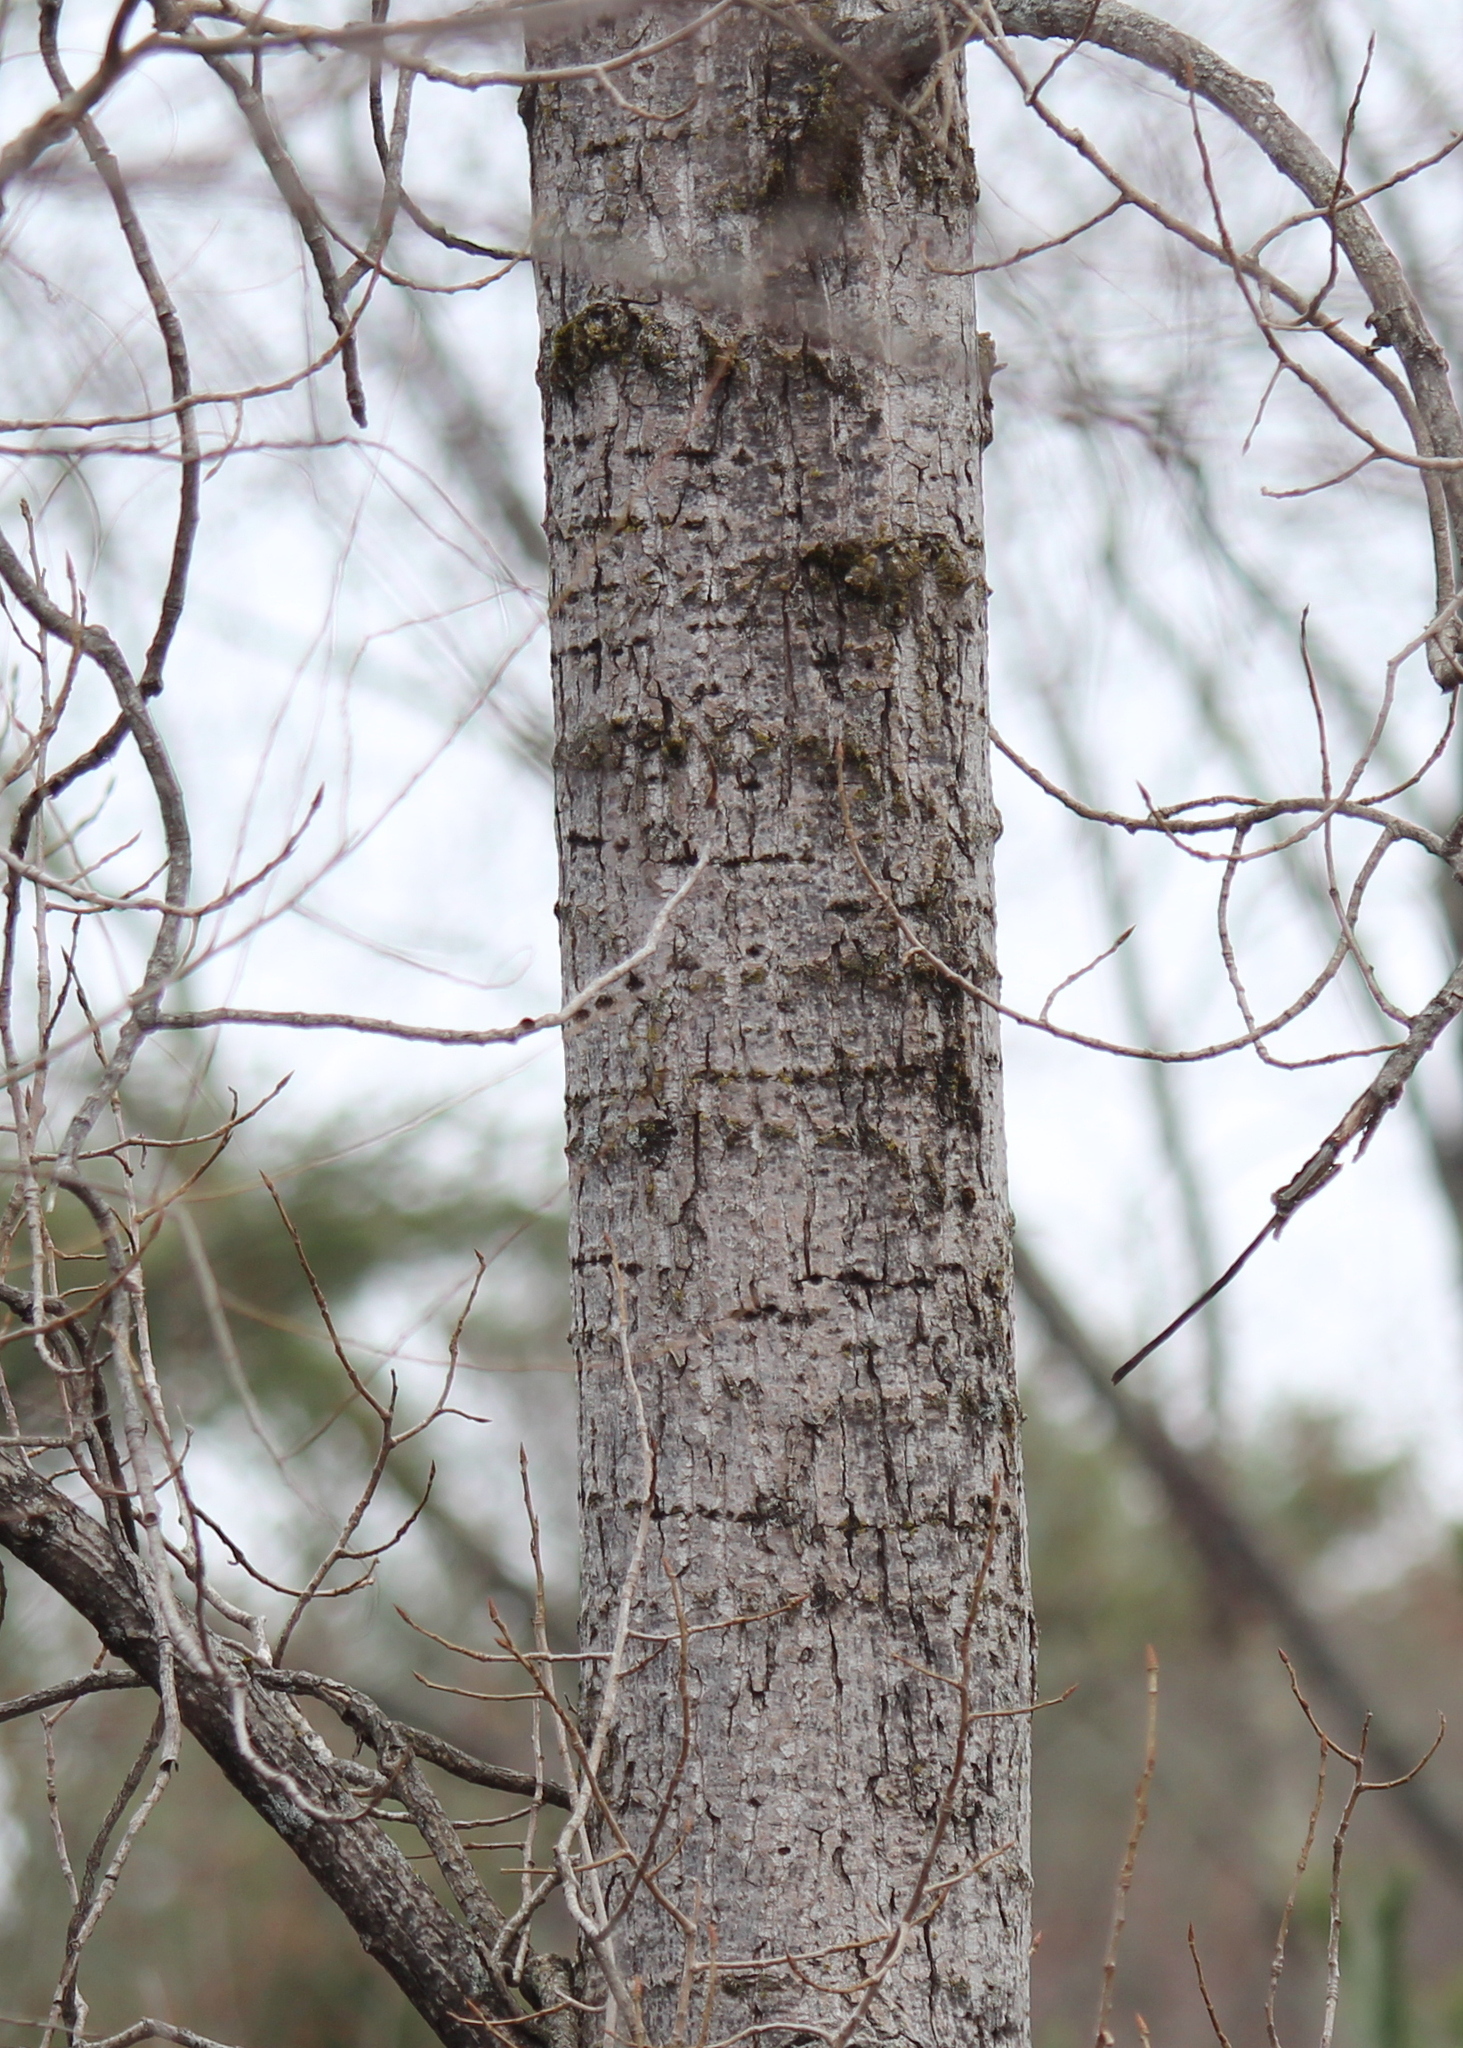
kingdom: Animalia
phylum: Chordata
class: Aves
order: Piciformes
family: Picidae
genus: Sphyrapicus
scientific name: Sphyrapicus varius
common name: Yellow-bellied sapsucker
